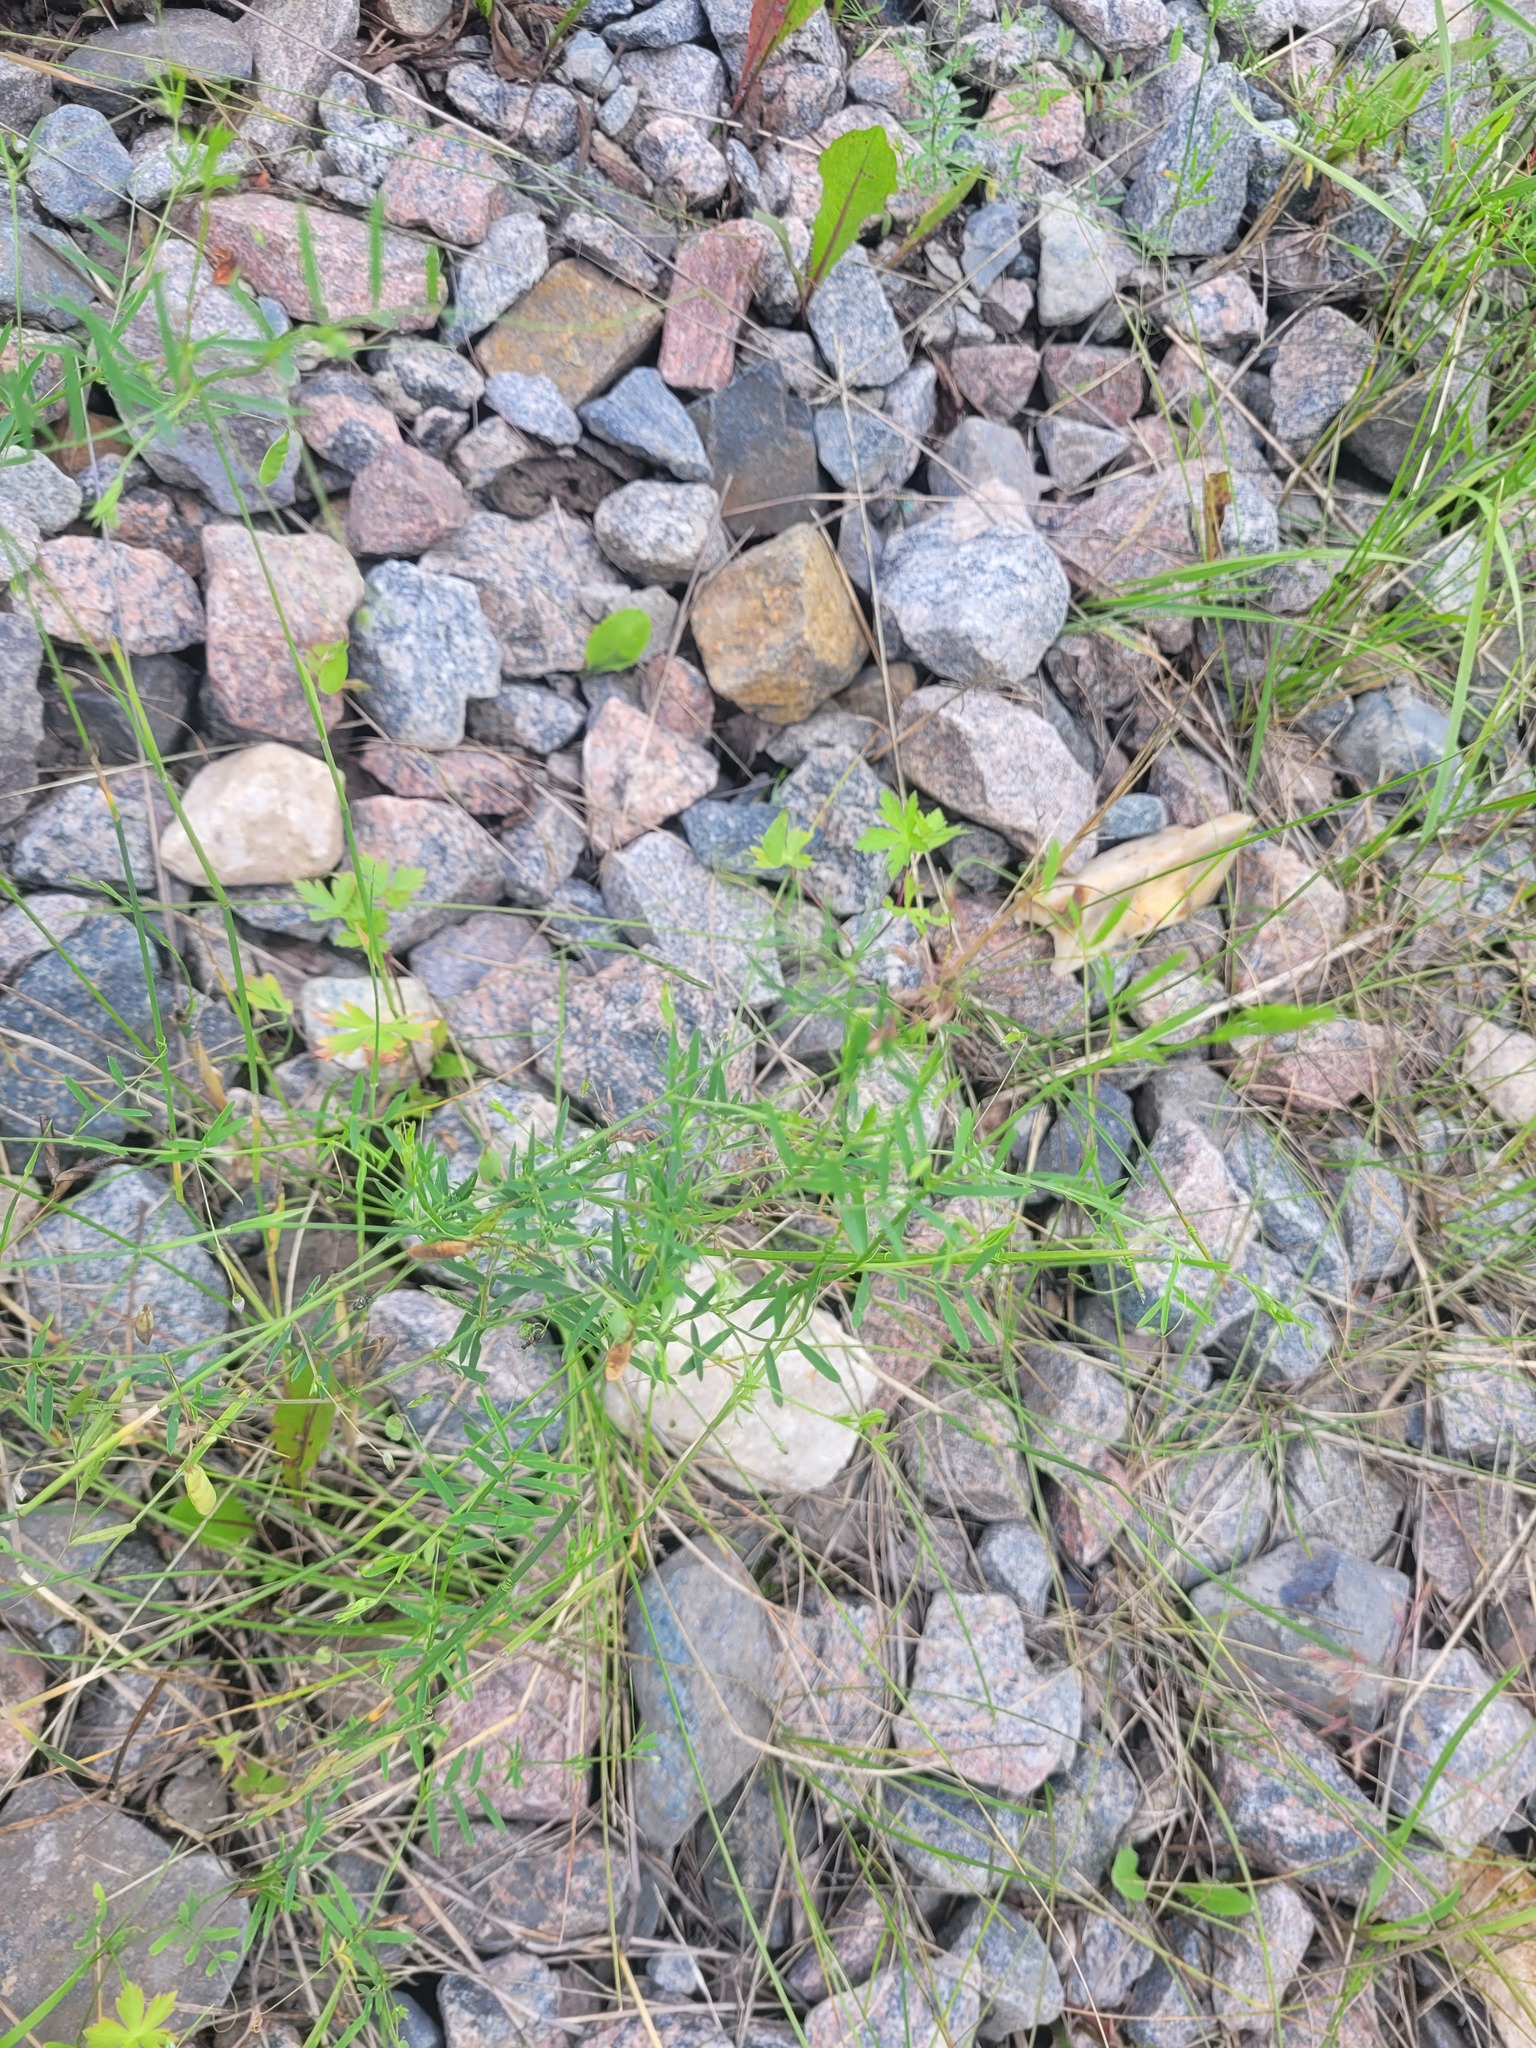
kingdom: Plantae
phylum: Tracheophyta
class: Magnoliopsida
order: Fabales
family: Fabaceae
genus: Vicia
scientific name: Vicia tetrasperma
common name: Smooth tare
